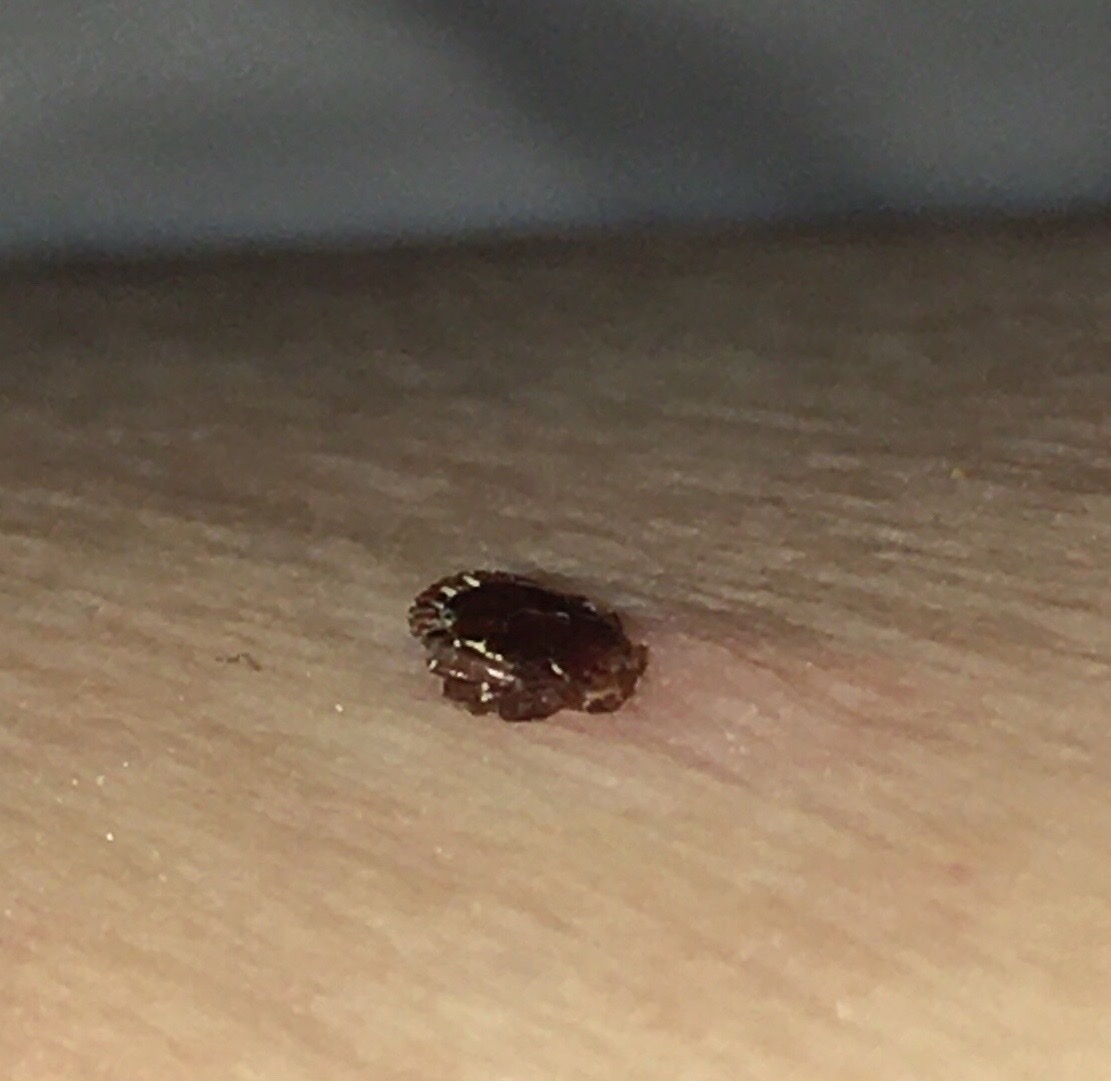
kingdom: Animalia
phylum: Arthropoda
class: Arachnida
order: Ixodida
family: Ixodidae
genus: Amblyomma
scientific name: Amblyomma americanum
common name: Lone star tick
